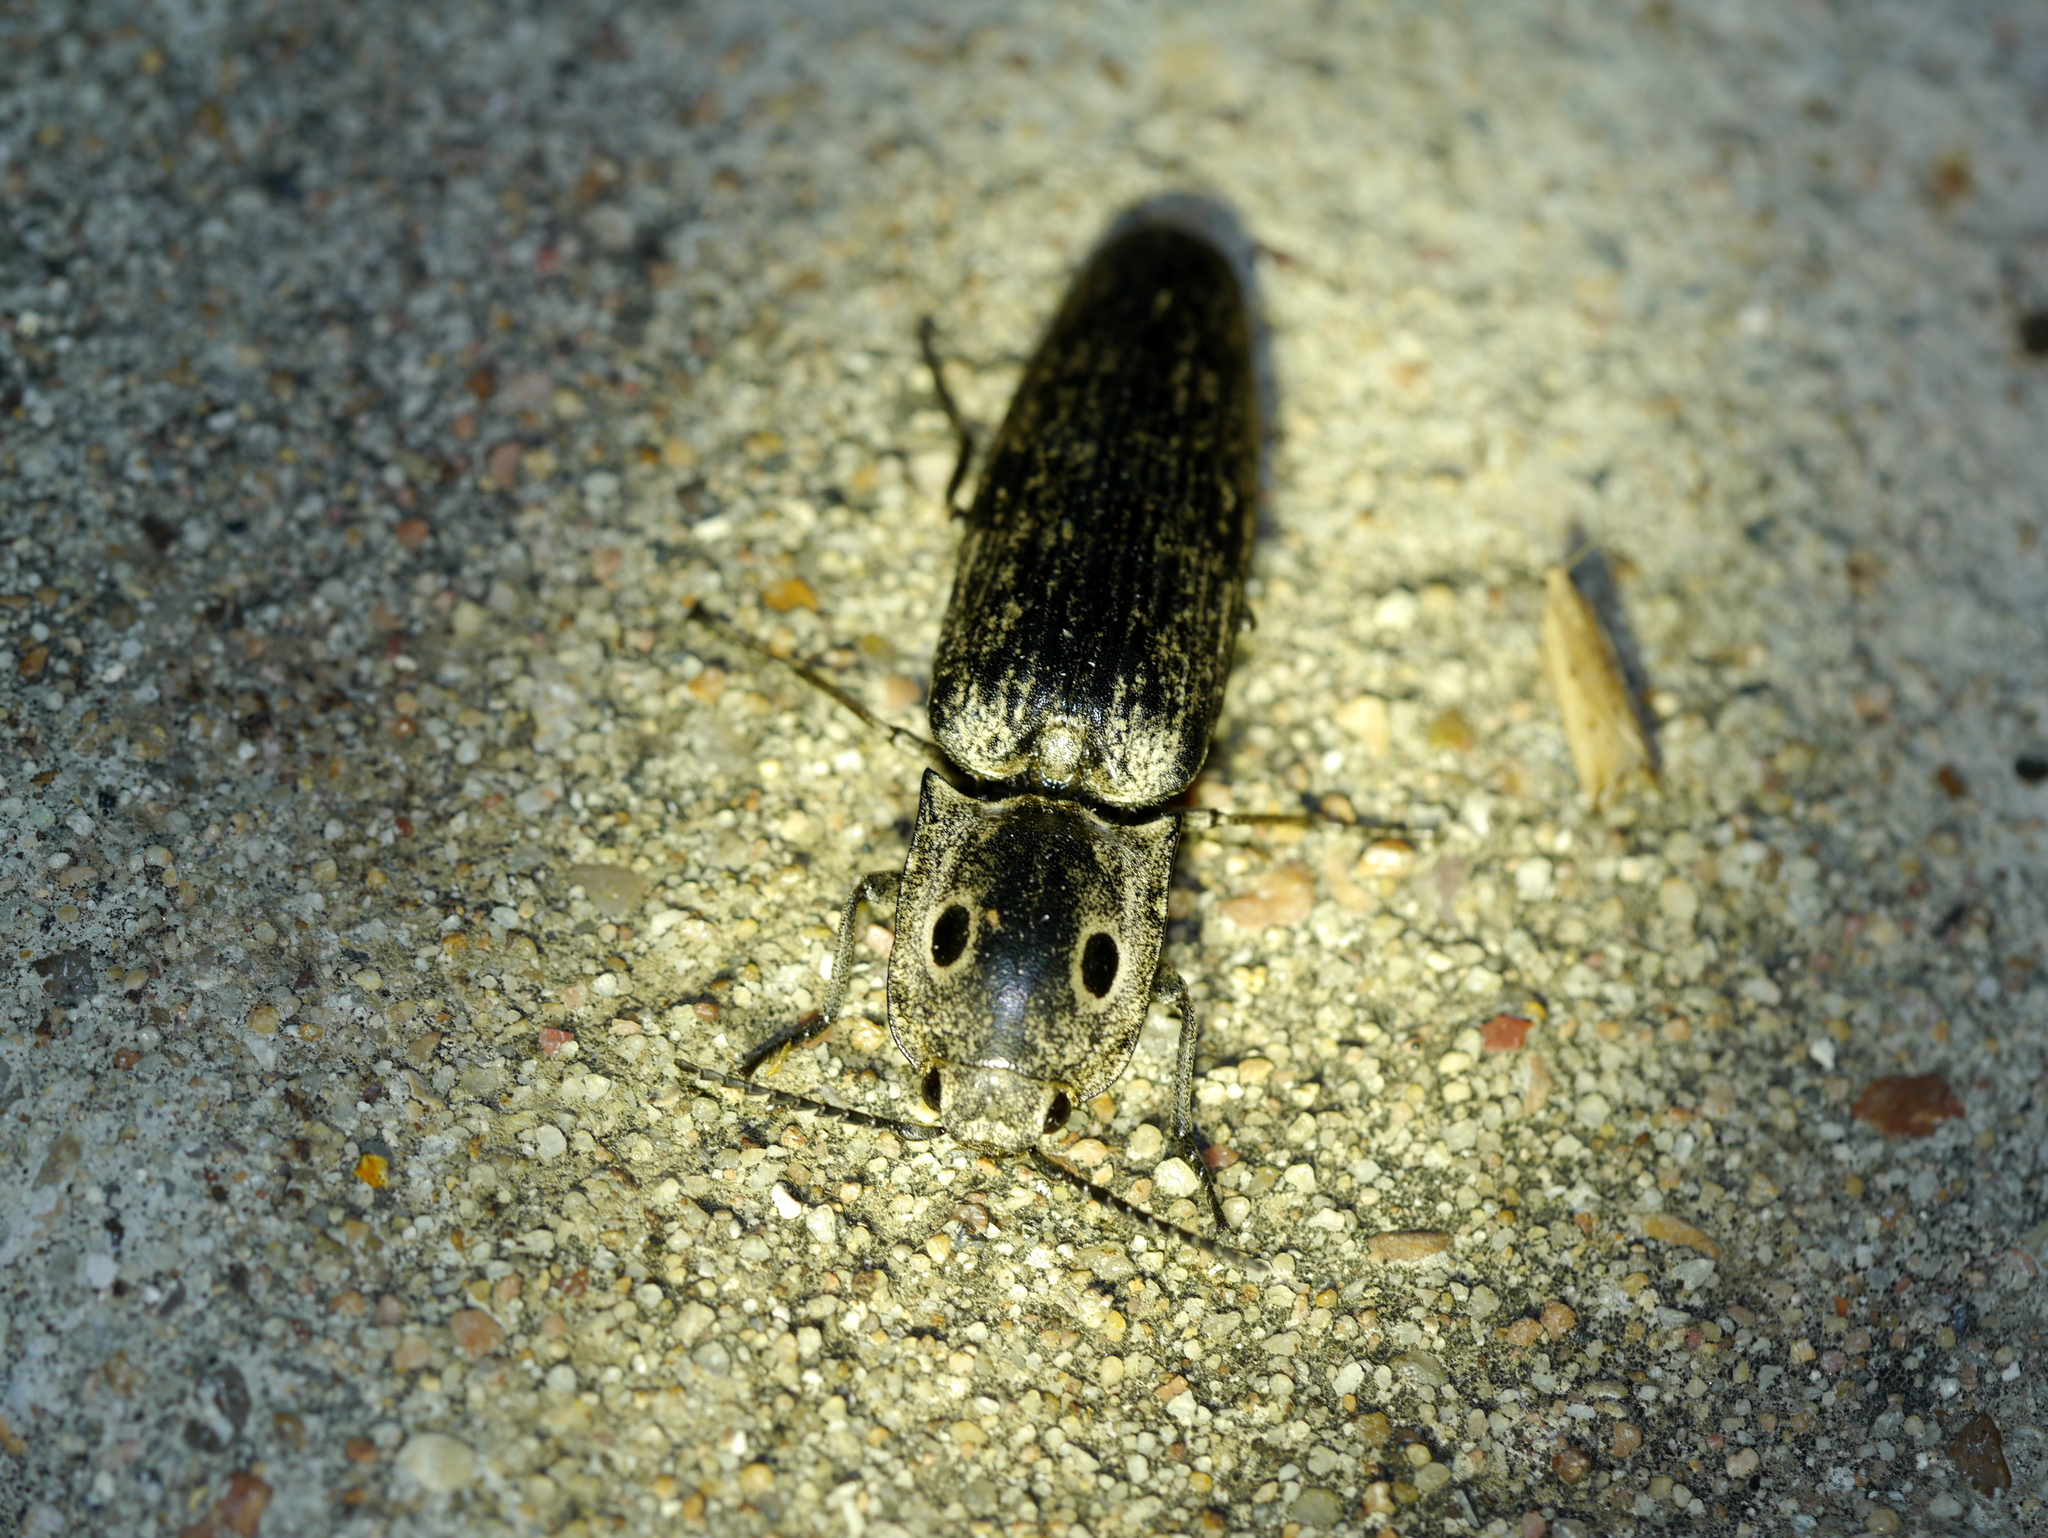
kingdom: Animalia
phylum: Arthropoda
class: Insecta
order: Coleoptera
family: Elateridae
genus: Alaus
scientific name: Alaus myops
